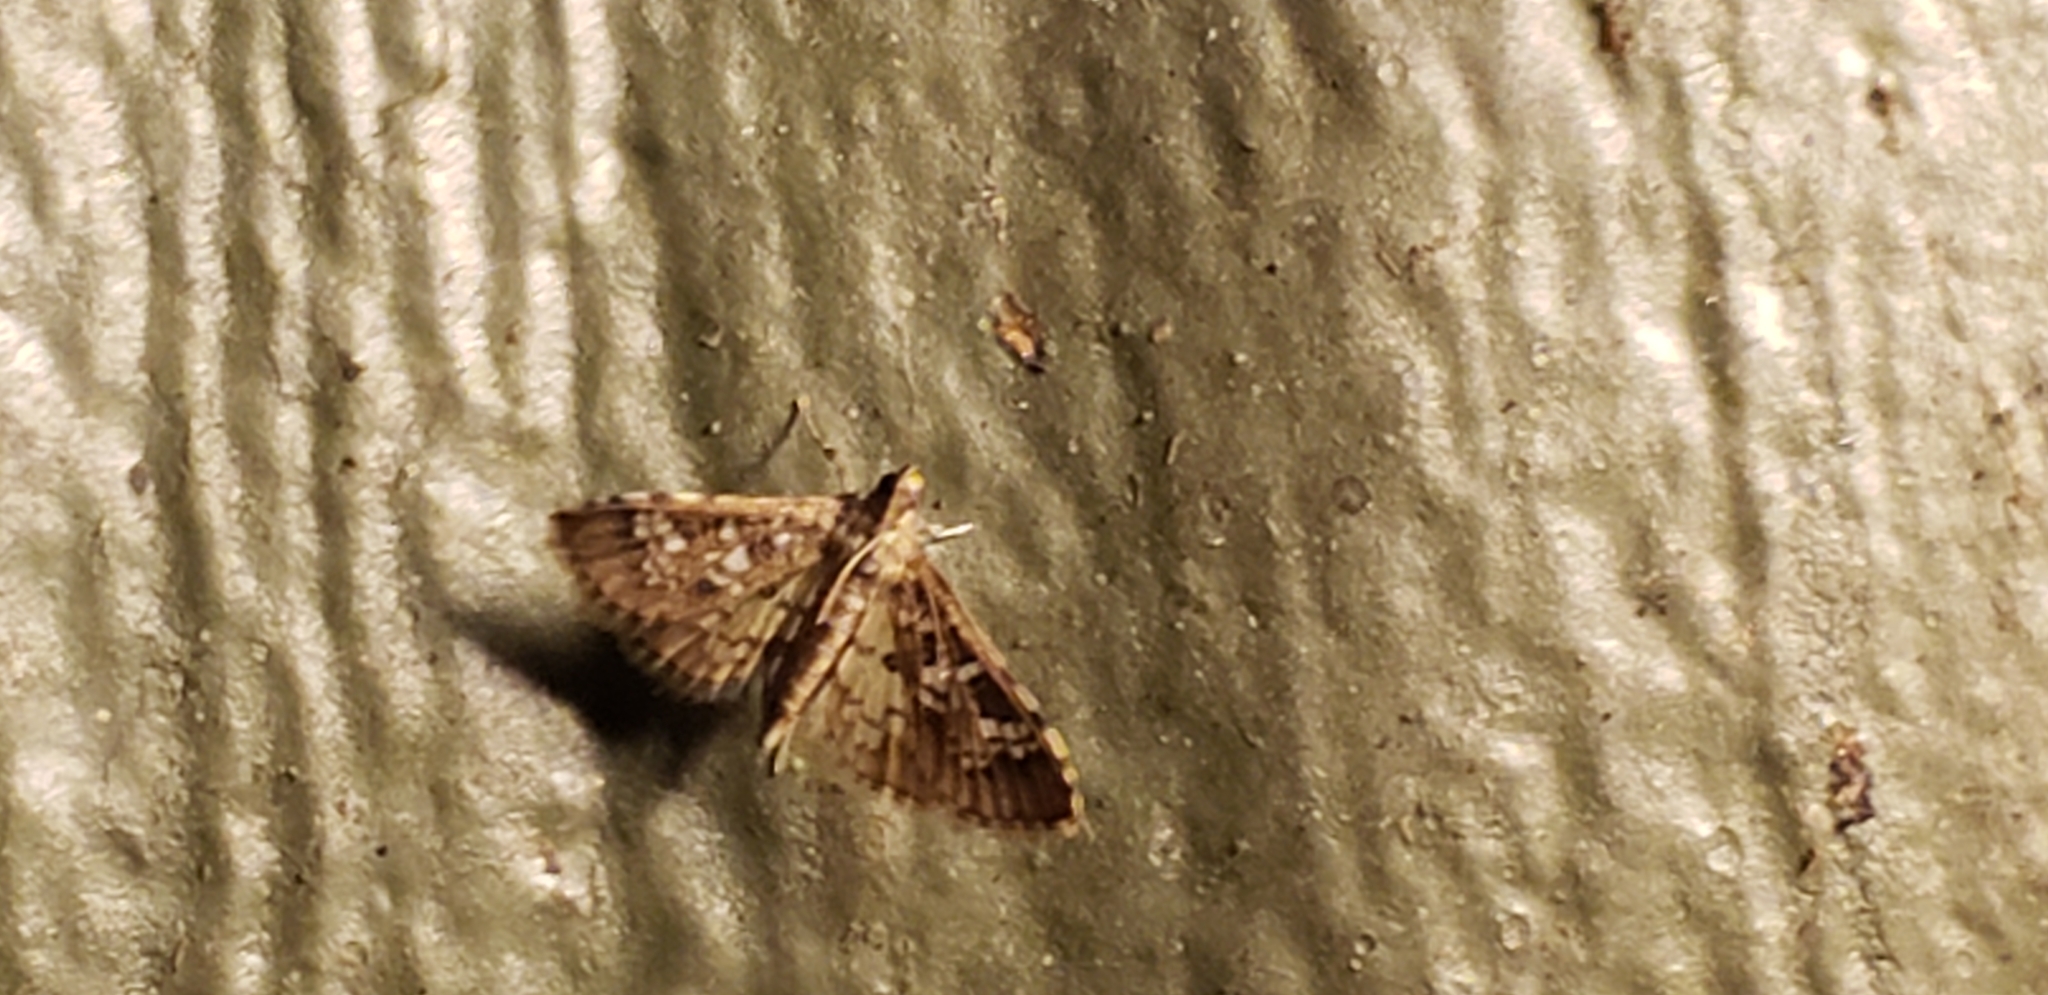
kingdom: Animalia
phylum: Arthropoda
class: Insecta
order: Lepidoptera
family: Crambidae
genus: Samea
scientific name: Samea multiplicalis
